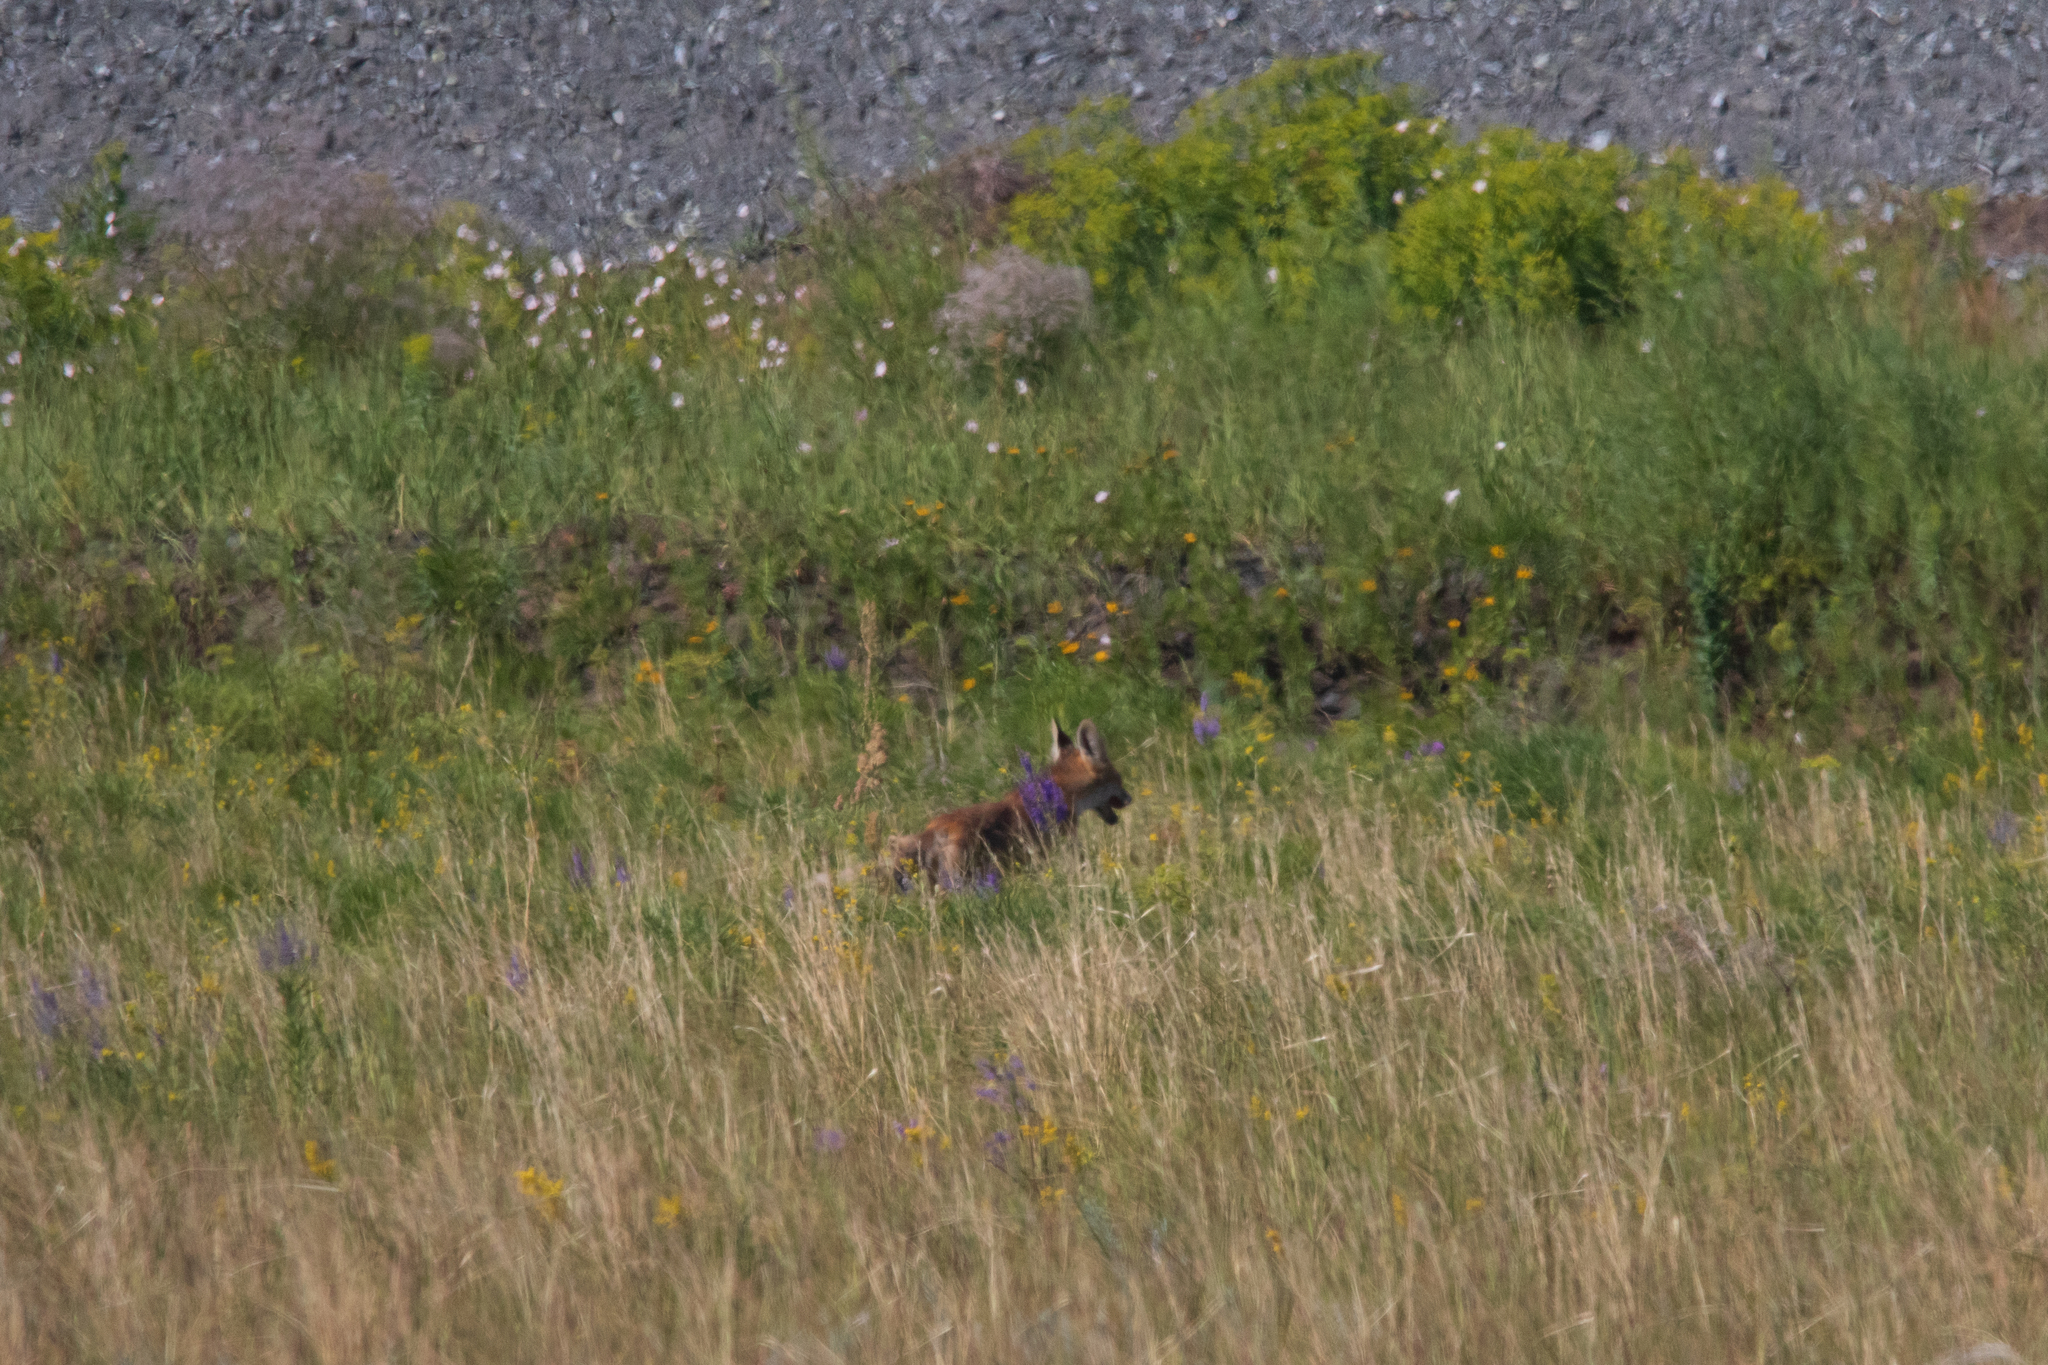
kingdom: Animalia
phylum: Chordata
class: Mammalia
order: Carnivora
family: Canidae
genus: Vulpes
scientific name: Vulpes vulpes
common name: Red fox
